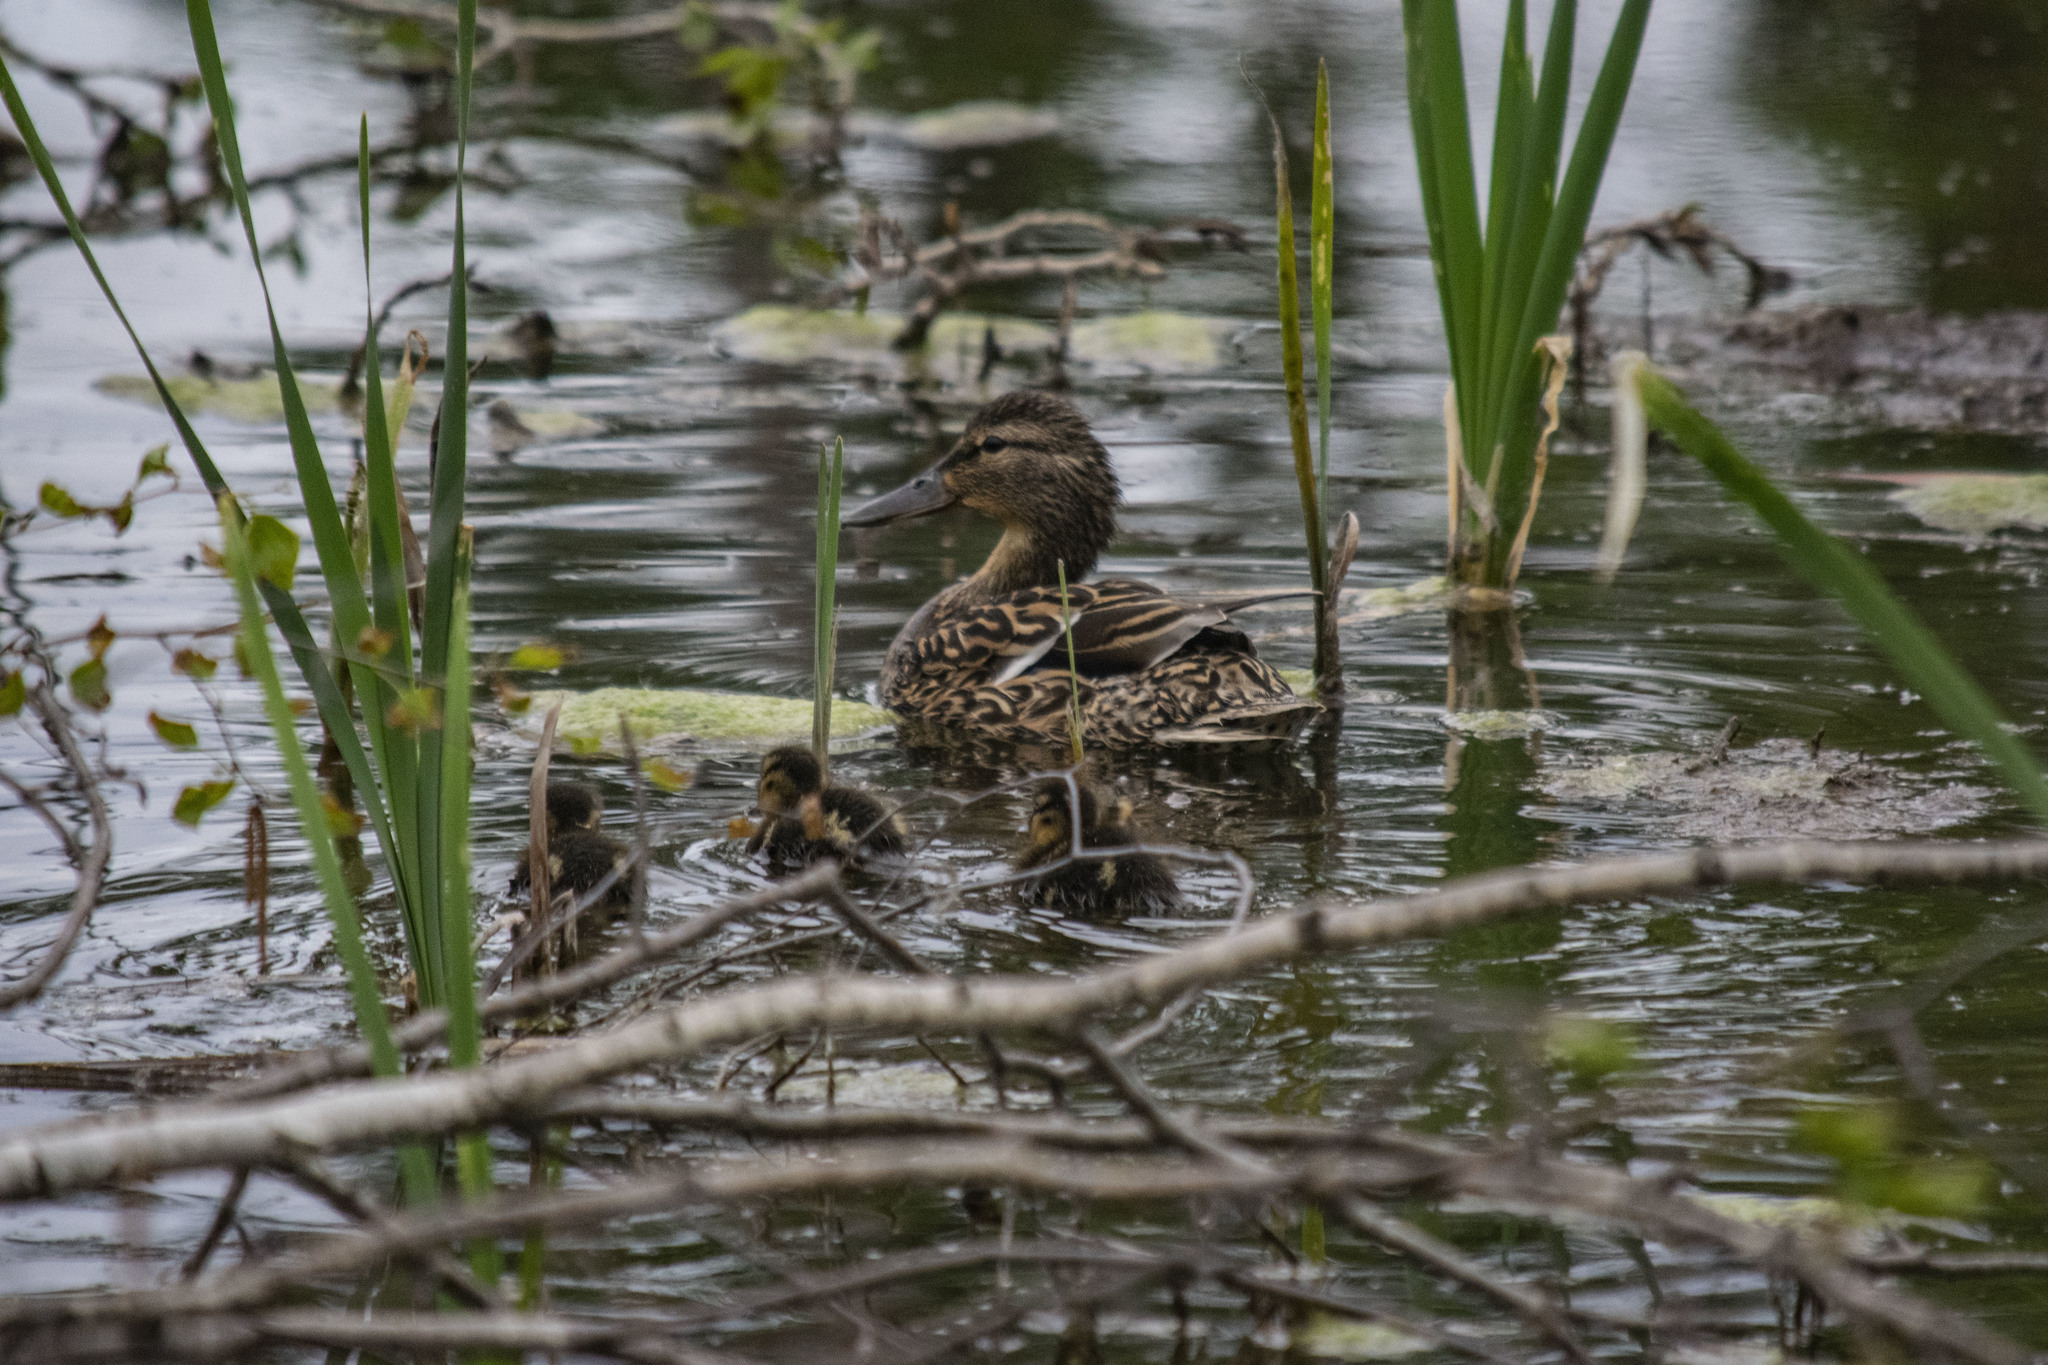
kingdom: Animalia
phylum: Chordata
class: Aves
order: Anseriformes
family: Anatidae
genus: Anas
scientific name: Anas platyrhynchos
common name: Mallard
